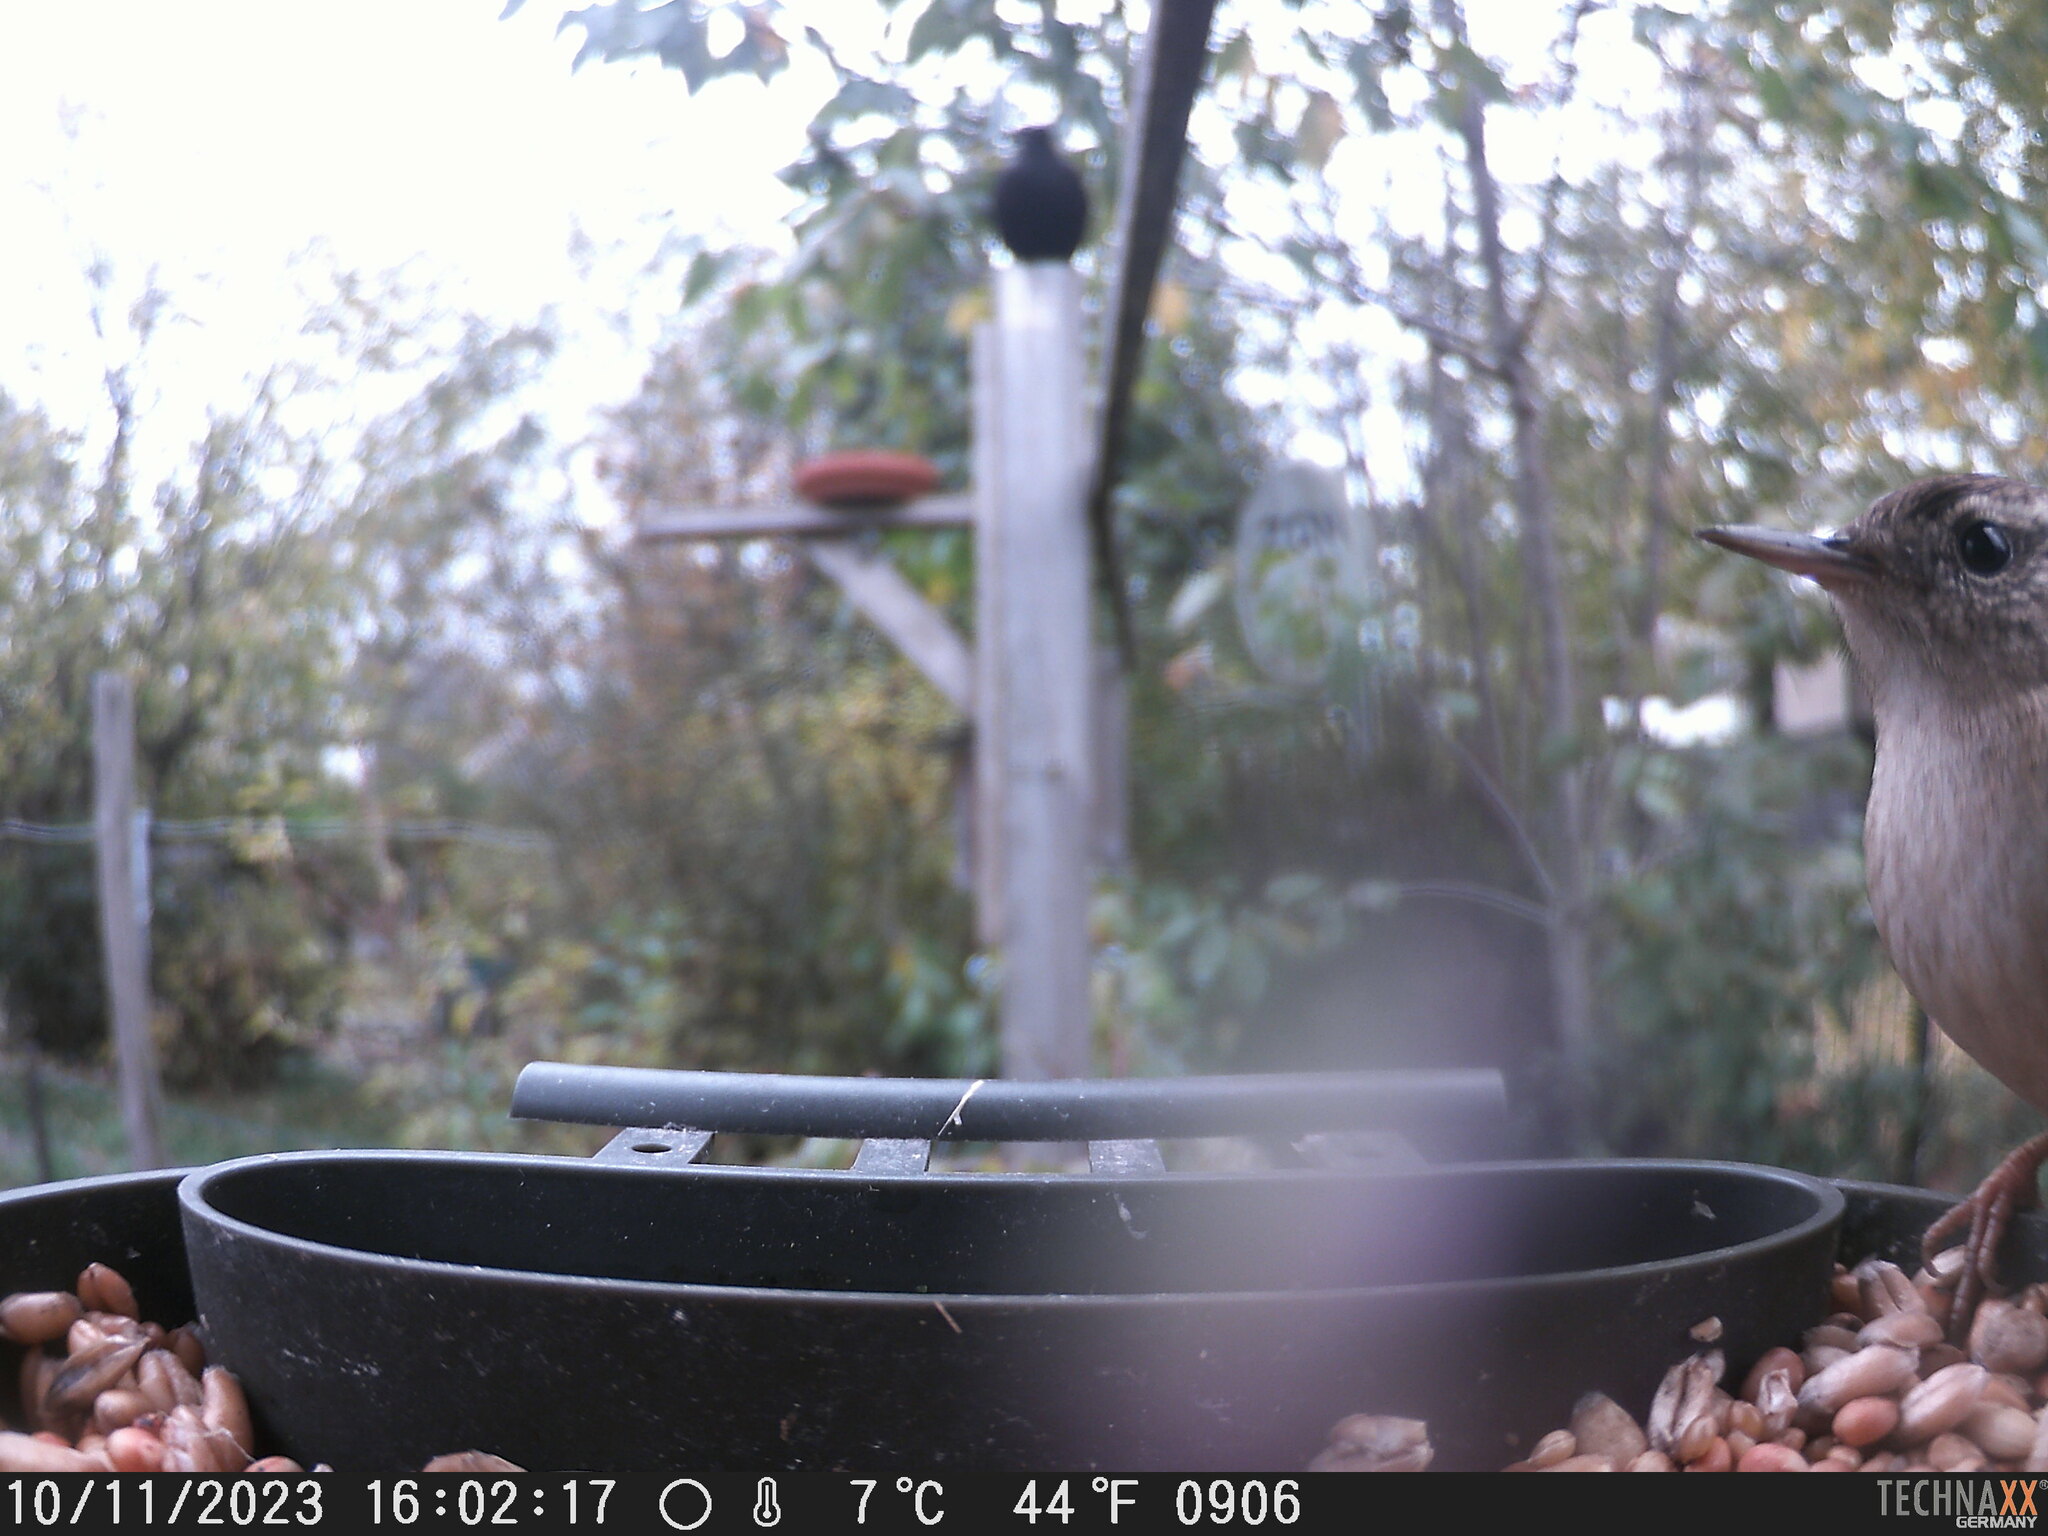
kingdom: Animalia
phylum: Chordata
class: Aves
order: Passeriformes
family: Troglodytidae
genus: Troglodytes
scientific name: Troglodytes troglodytes
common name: Eurasian wren
